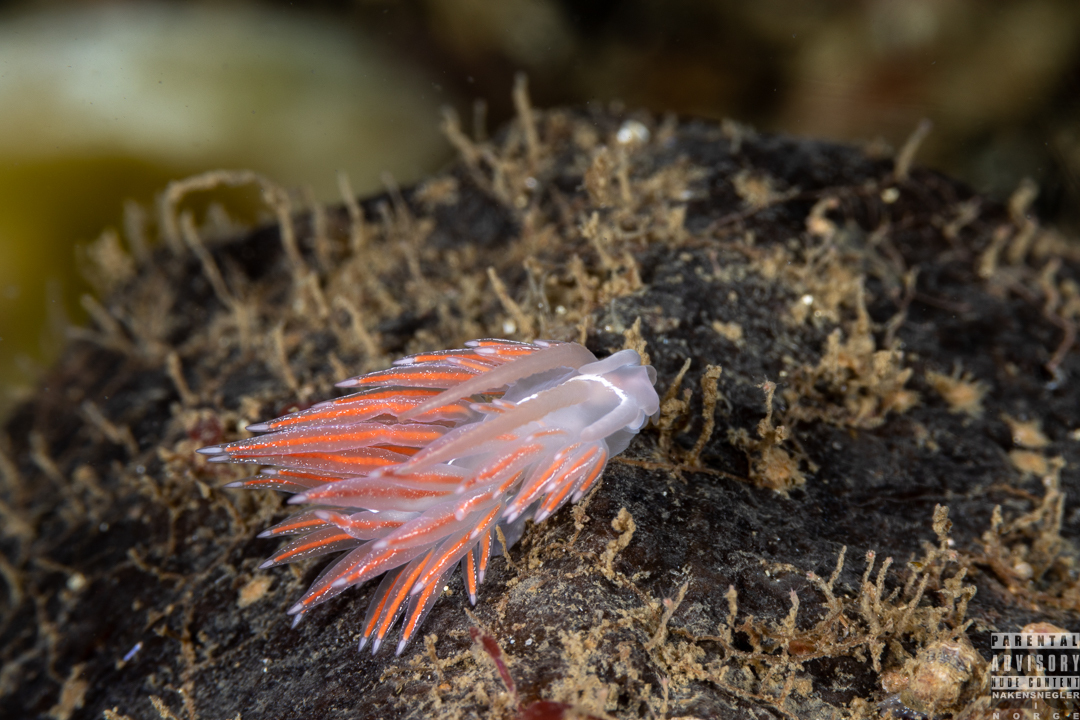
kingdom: Animalia
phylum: Mollusca
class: Gastropoda
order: Nudibranchia
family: Coryphellidae
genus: Coryphella
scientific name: Coryphella chriskaugei
